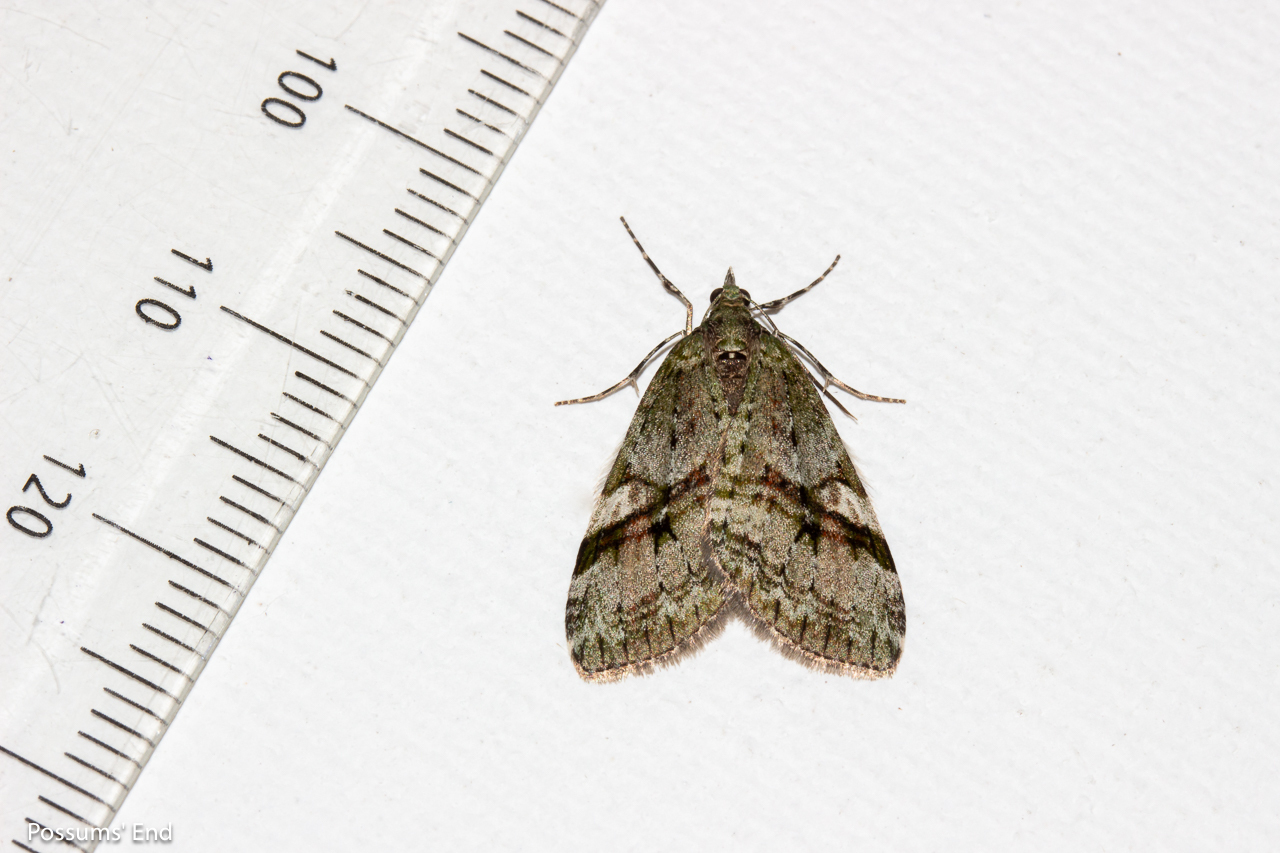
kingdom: Animalia
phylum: Arthropoda
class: Insecta
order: Lepidoptera
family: Geometridae
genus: Tatosoma
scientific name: Tatosoma topea
